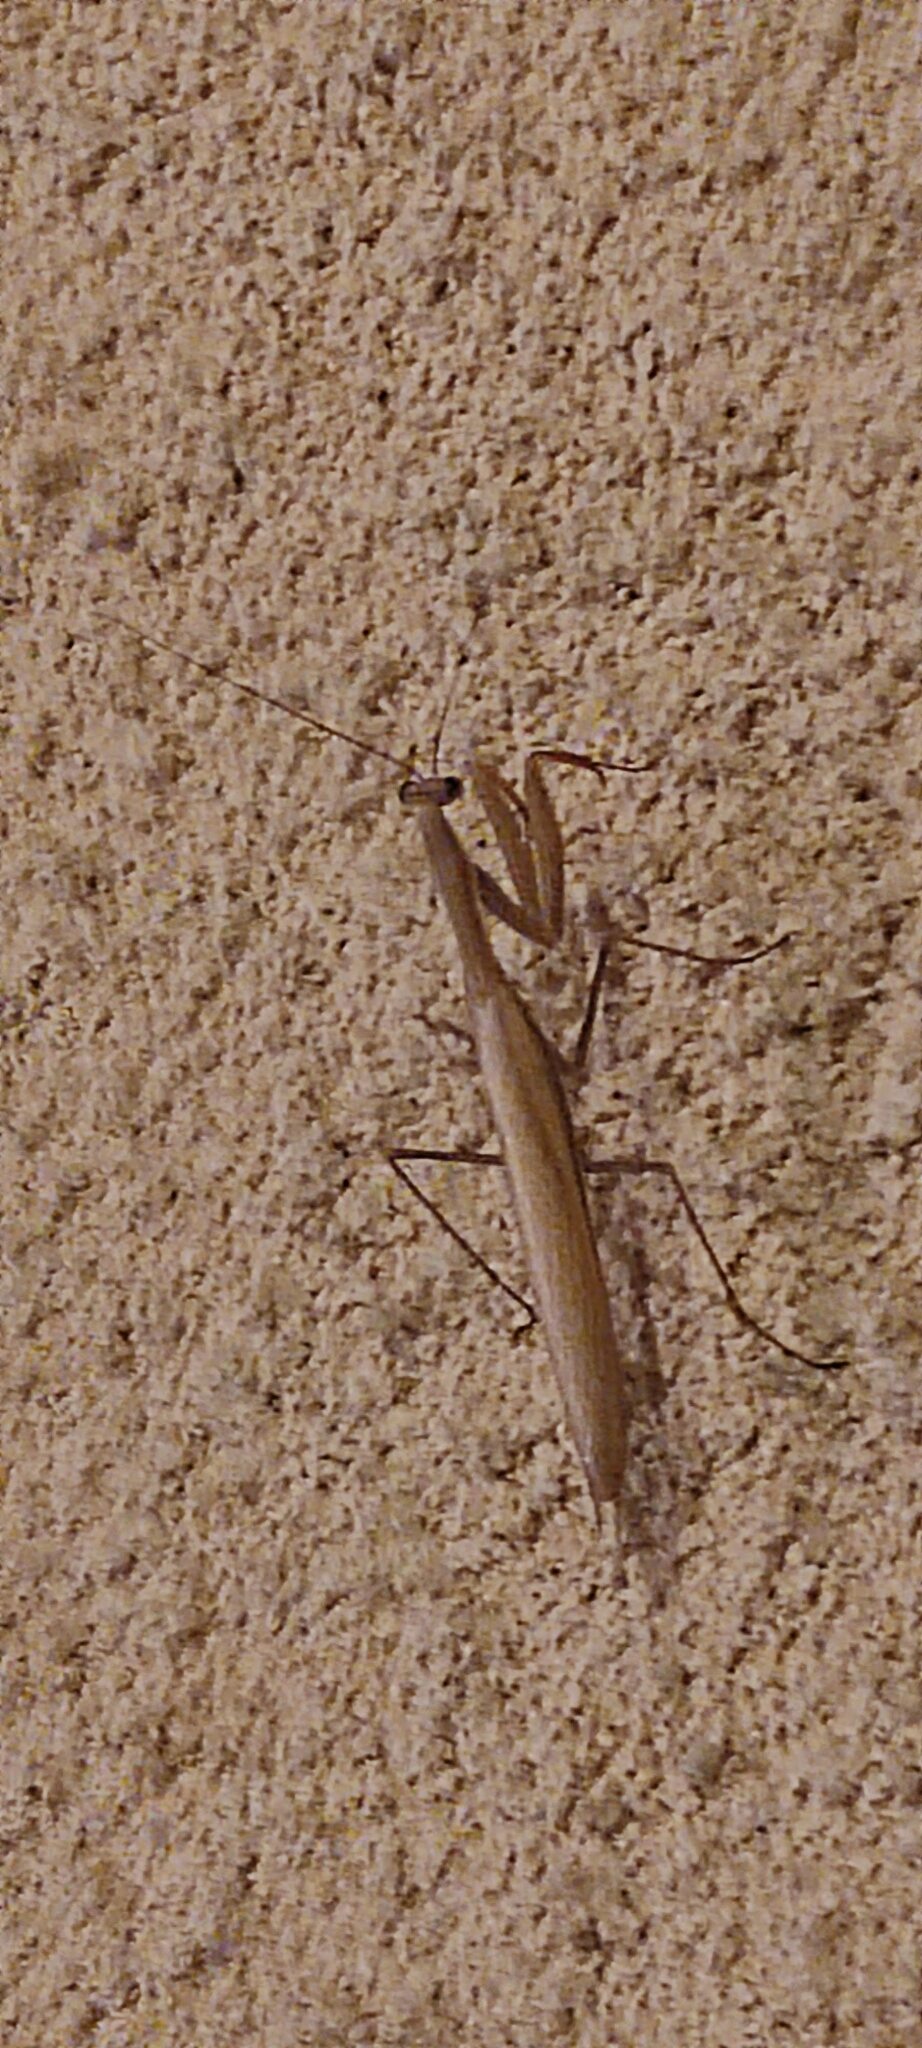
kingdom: Animalia
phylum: Arthropoda
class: Insecta
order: Mantodea
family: Mantidae
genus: Mantis
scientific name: Mantis religiosa
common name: Praying mantis
